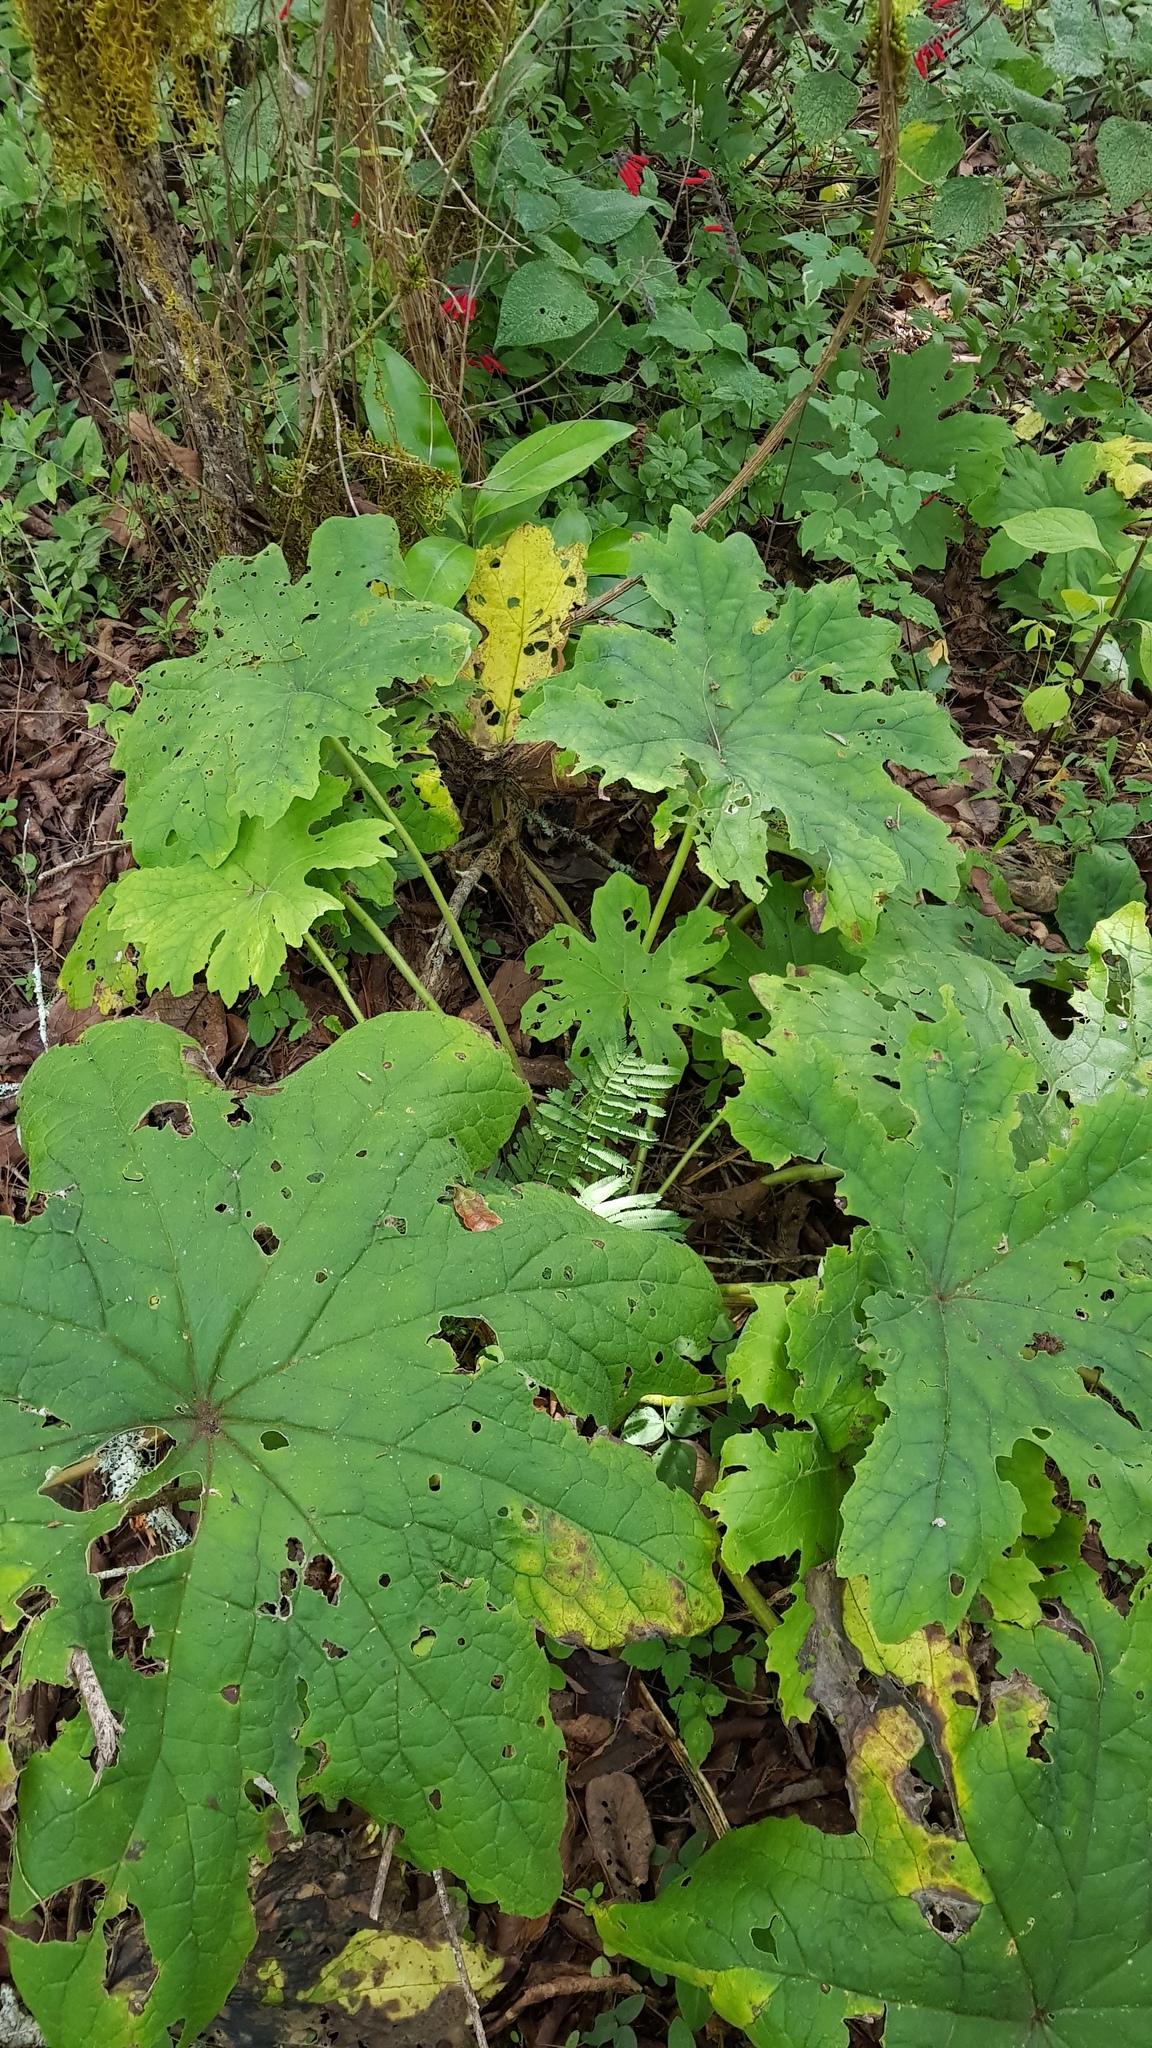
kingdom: Plantae
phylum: Tracheophyta
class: Magnoliopsida
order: Asterales
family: Asteraceae
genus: Psacalium
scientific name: Psacalium peltatum
